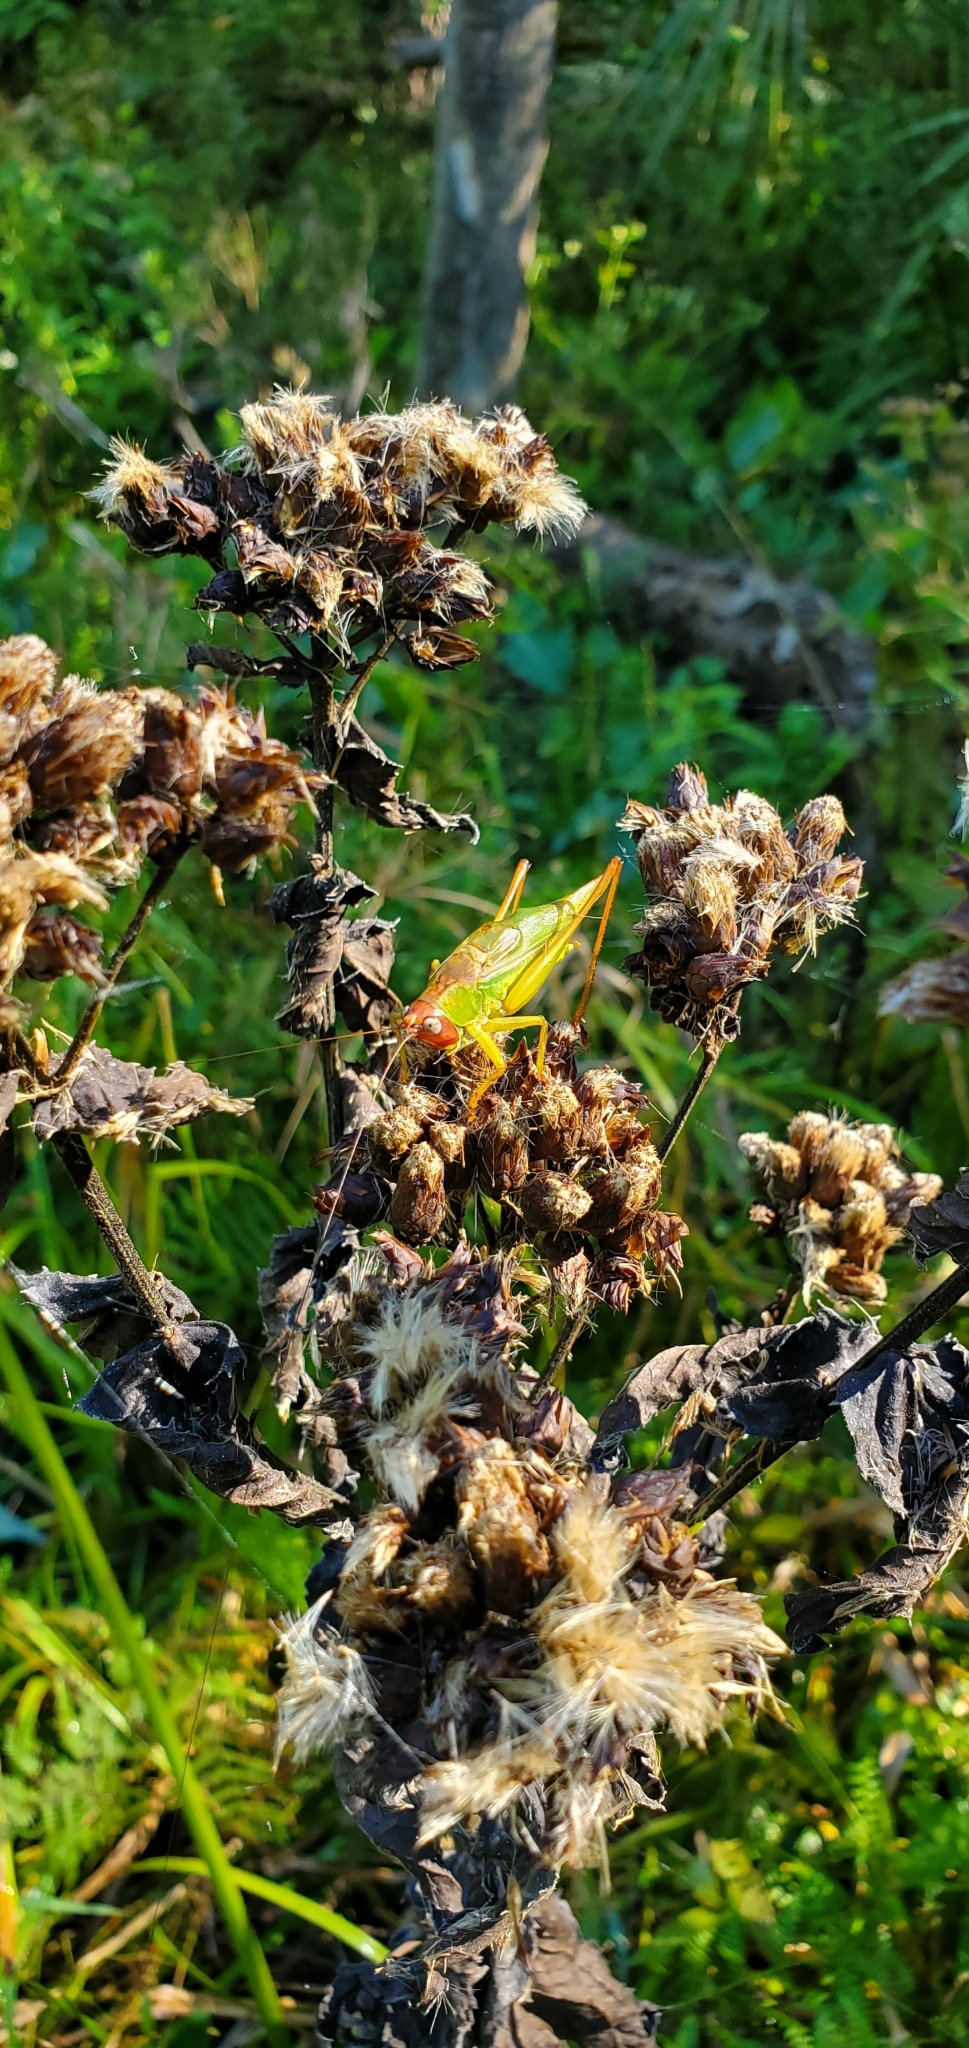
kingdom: Animalia
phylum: Arthropoda
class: Insecta
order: Orthoptera
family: Tettigoniidae
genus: Orchelimum
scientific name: Orchelimum erythrocephalum
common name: Red-headed meadow katydid
